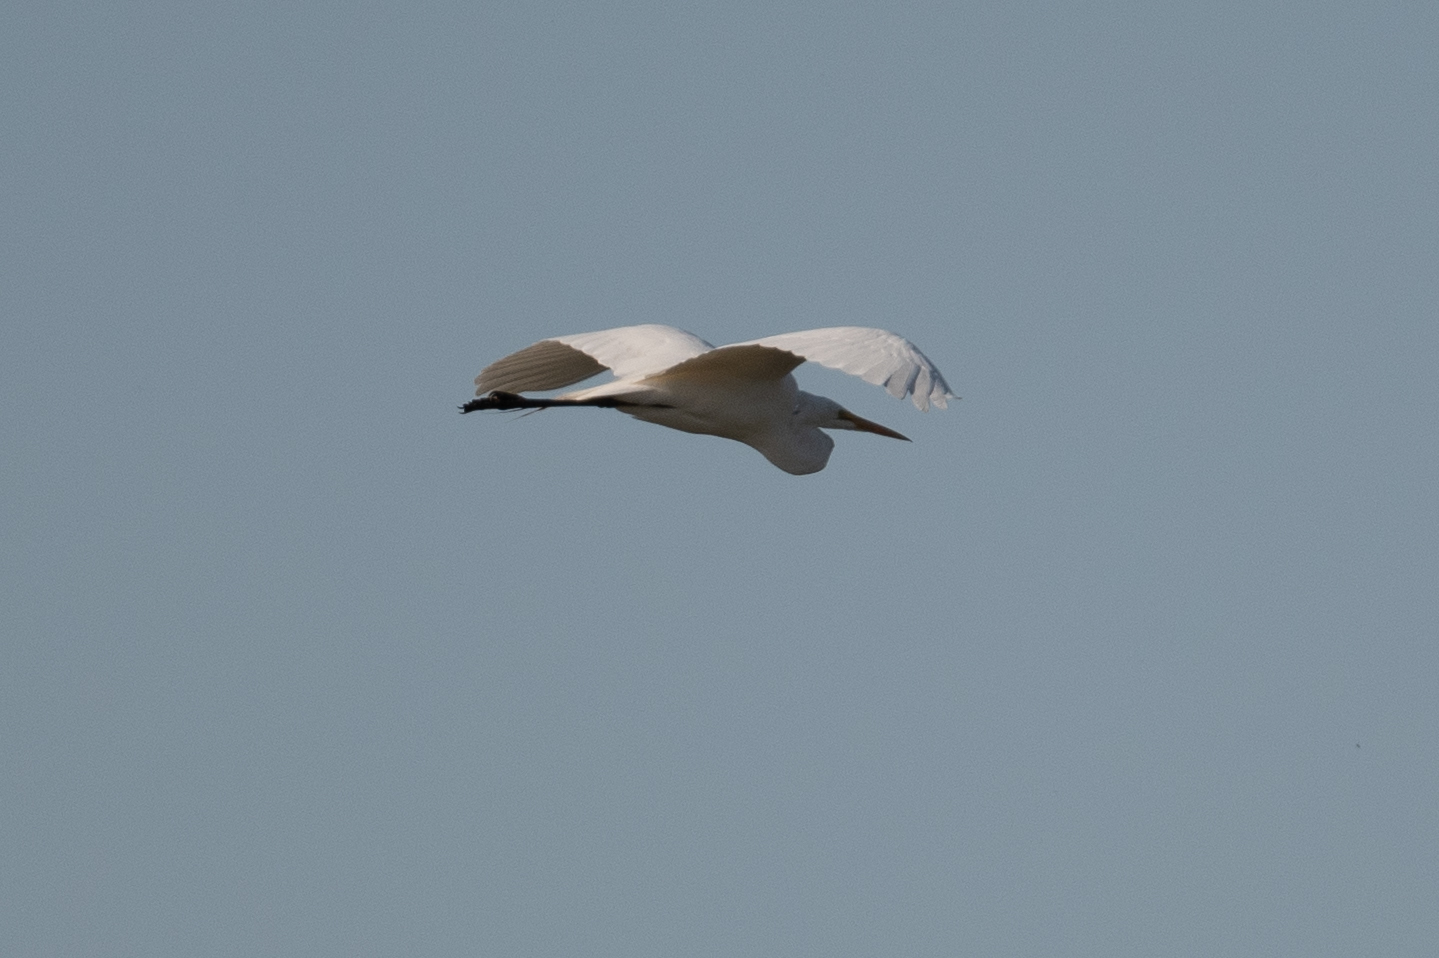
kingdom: Animalia
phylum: Chordata
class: Aves
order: Pelecaniformes
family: Ardeidae
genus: Ardea
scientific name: Ardea alba
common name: Great egret
